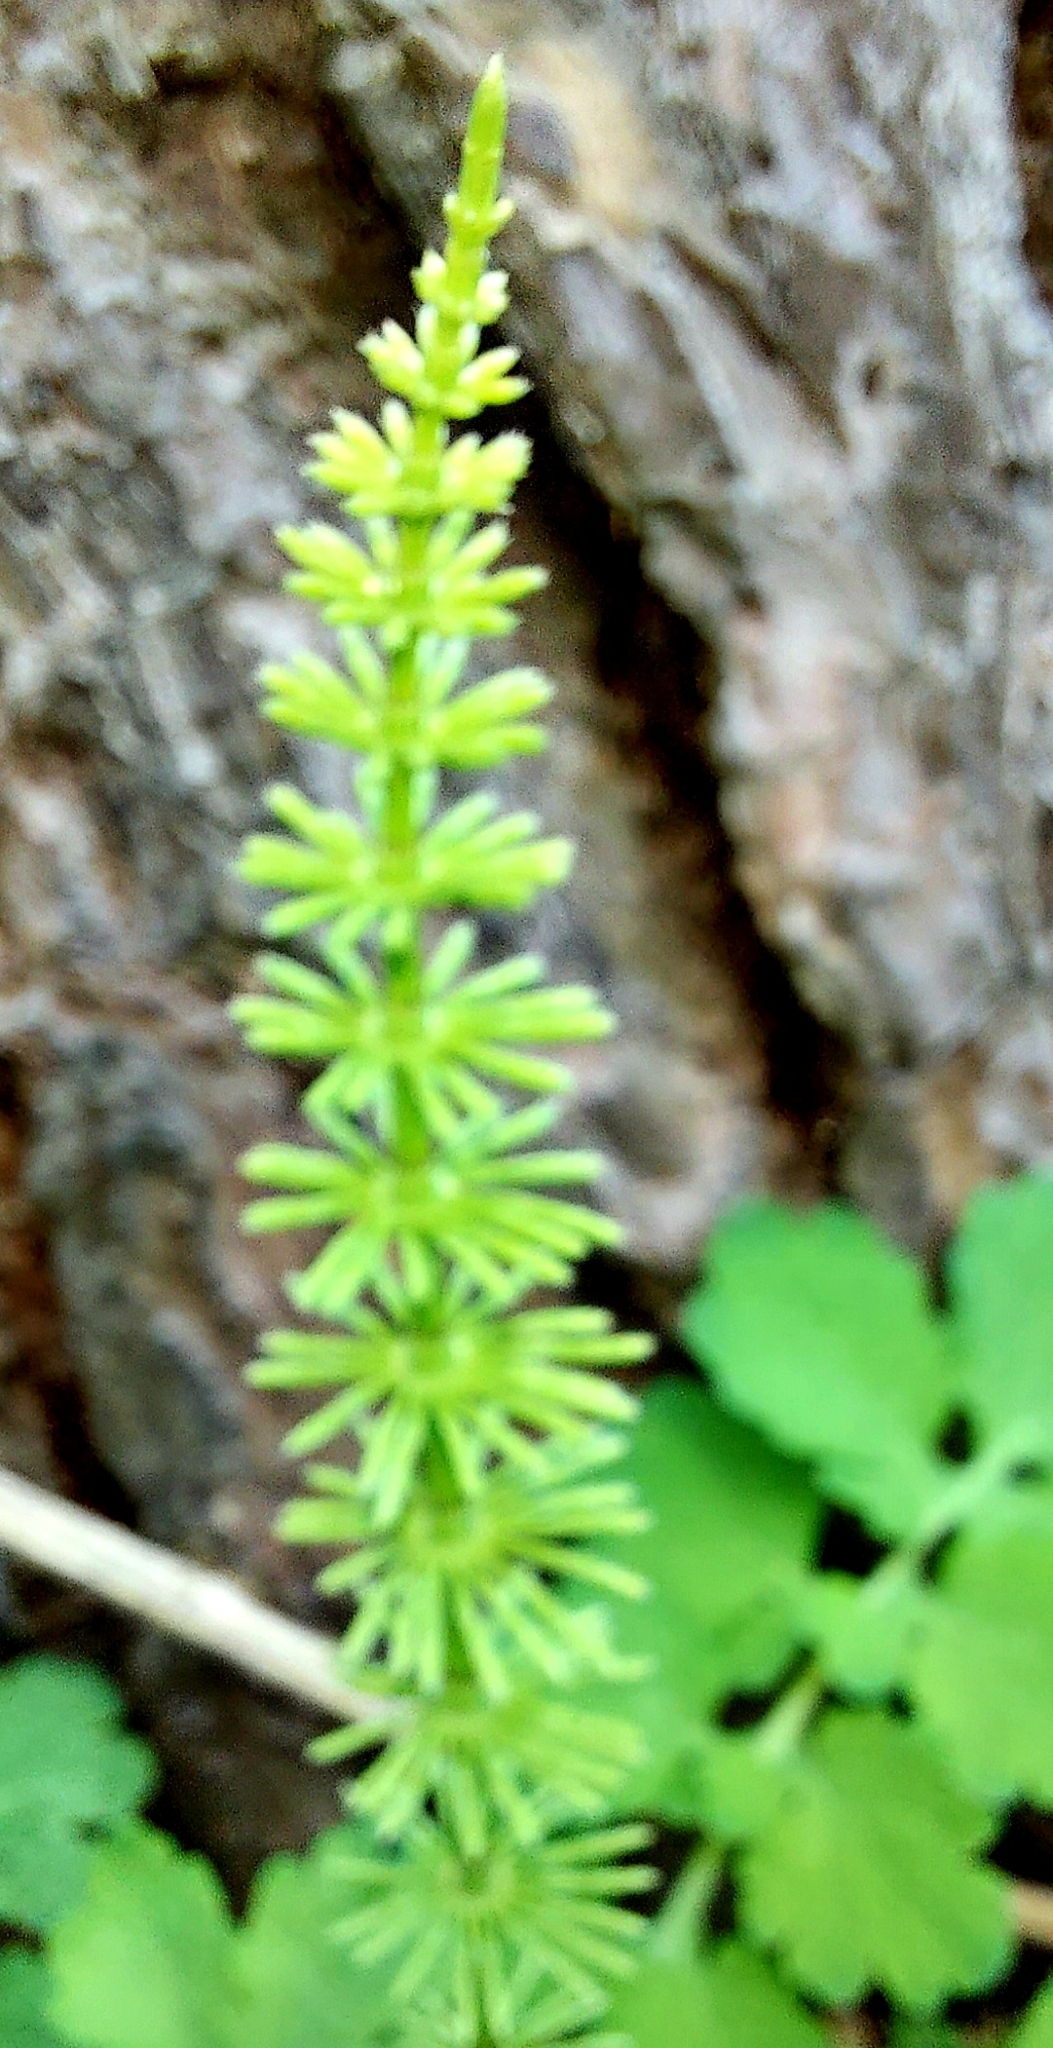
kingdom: Plantae
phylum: Tracheophyta
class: Polypodiopsida
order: Equisetales
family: Equisetaceae
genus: Equisetum
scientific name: Equisetum pratense
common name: Meadow horsetail
